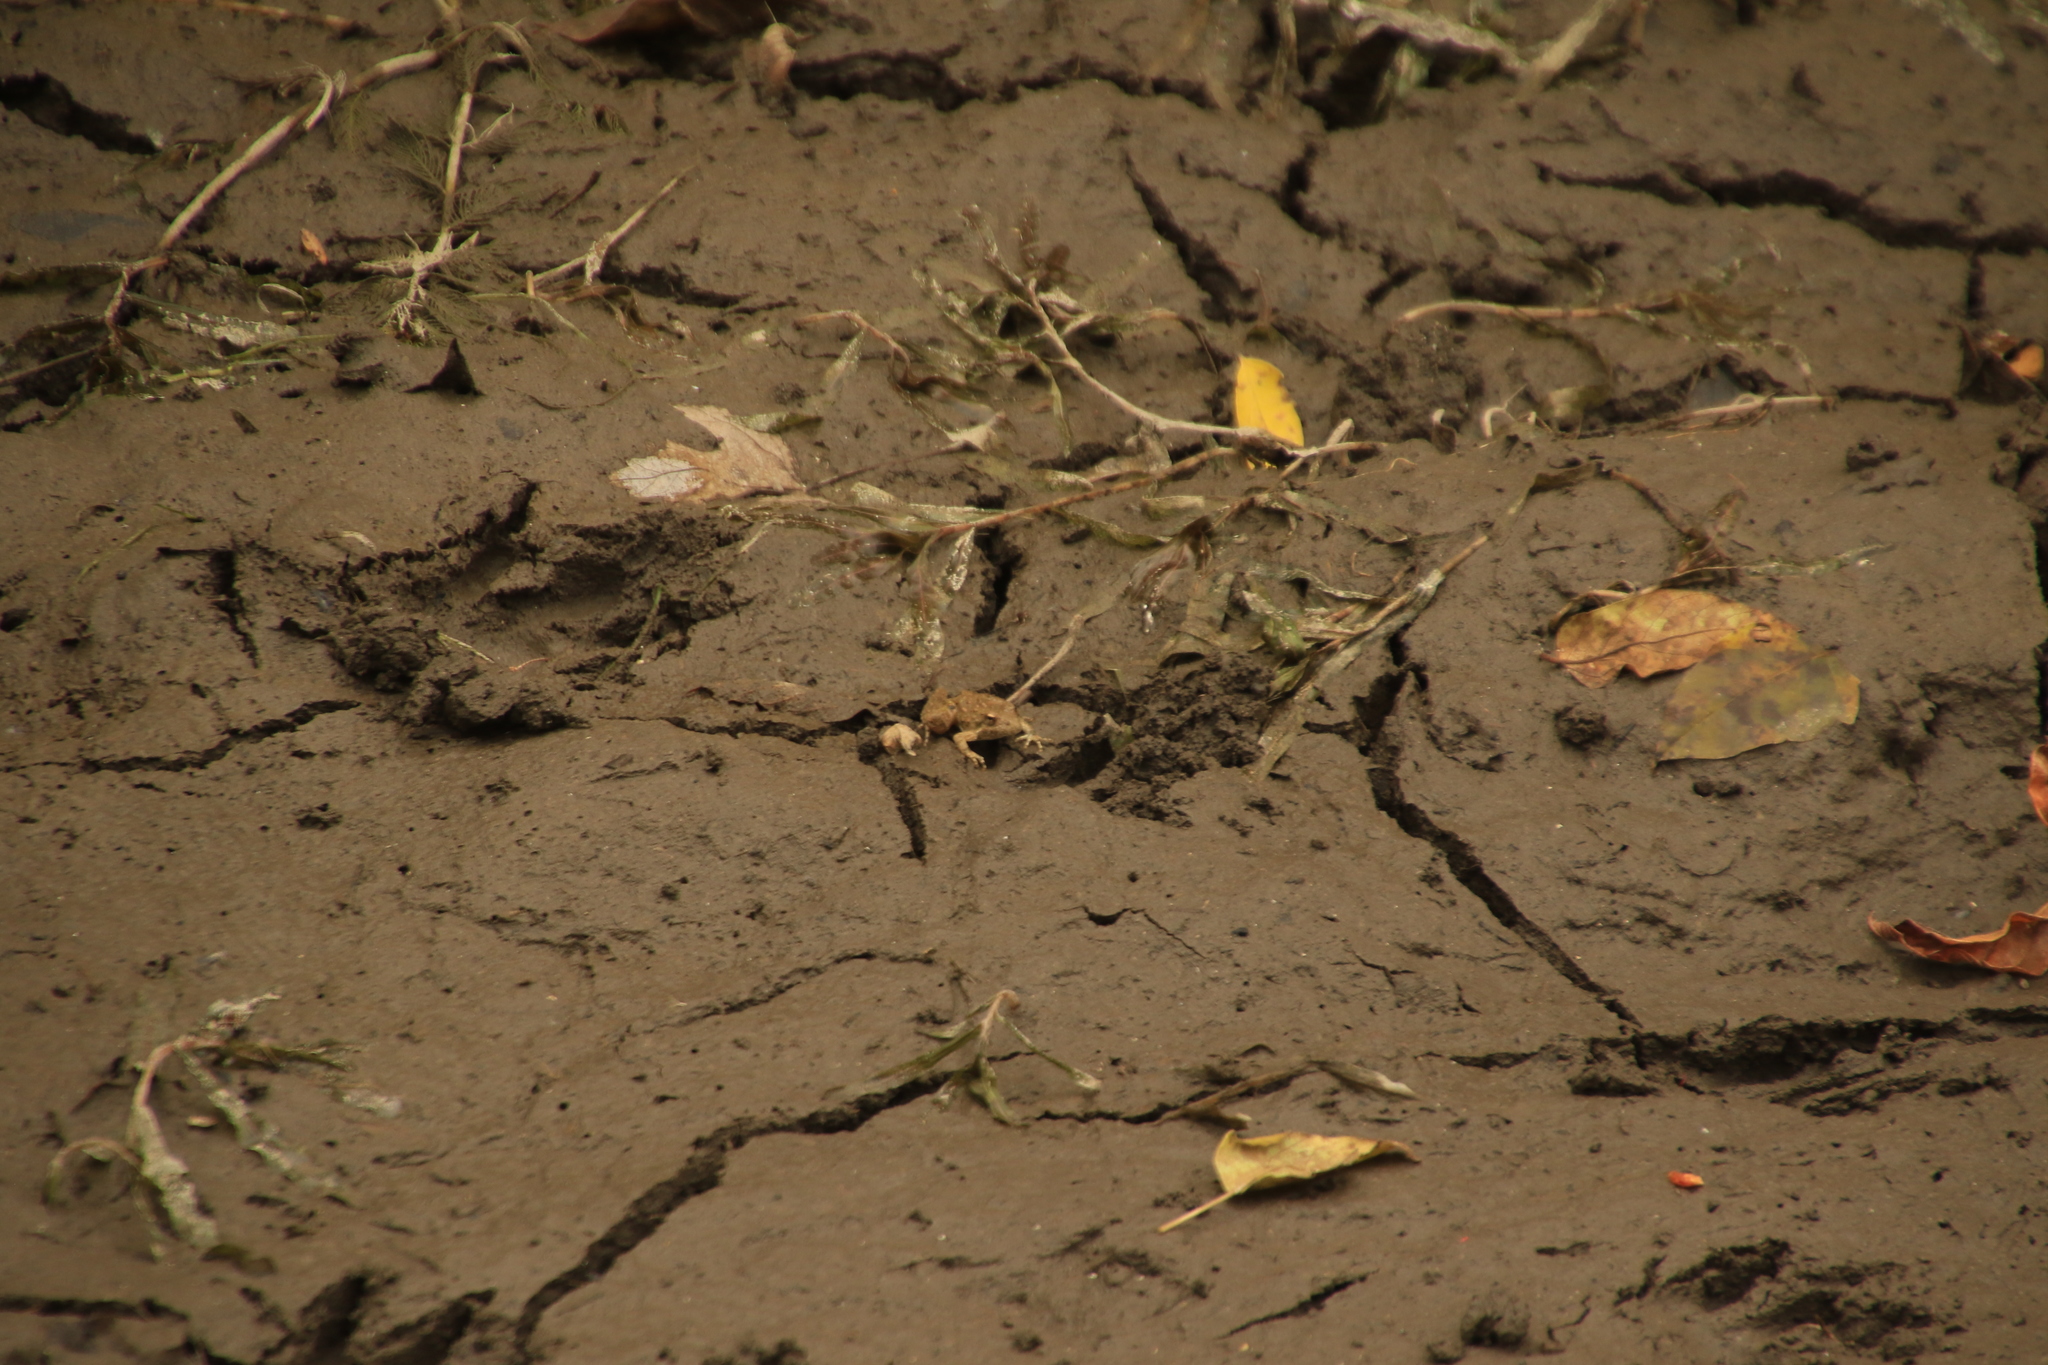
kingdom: Animalia
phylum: Chordata
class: Amphibia
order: Anura
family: Hylidae
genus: Acris
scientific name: Acris blanchardi
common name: Blanchard's cricket frog
